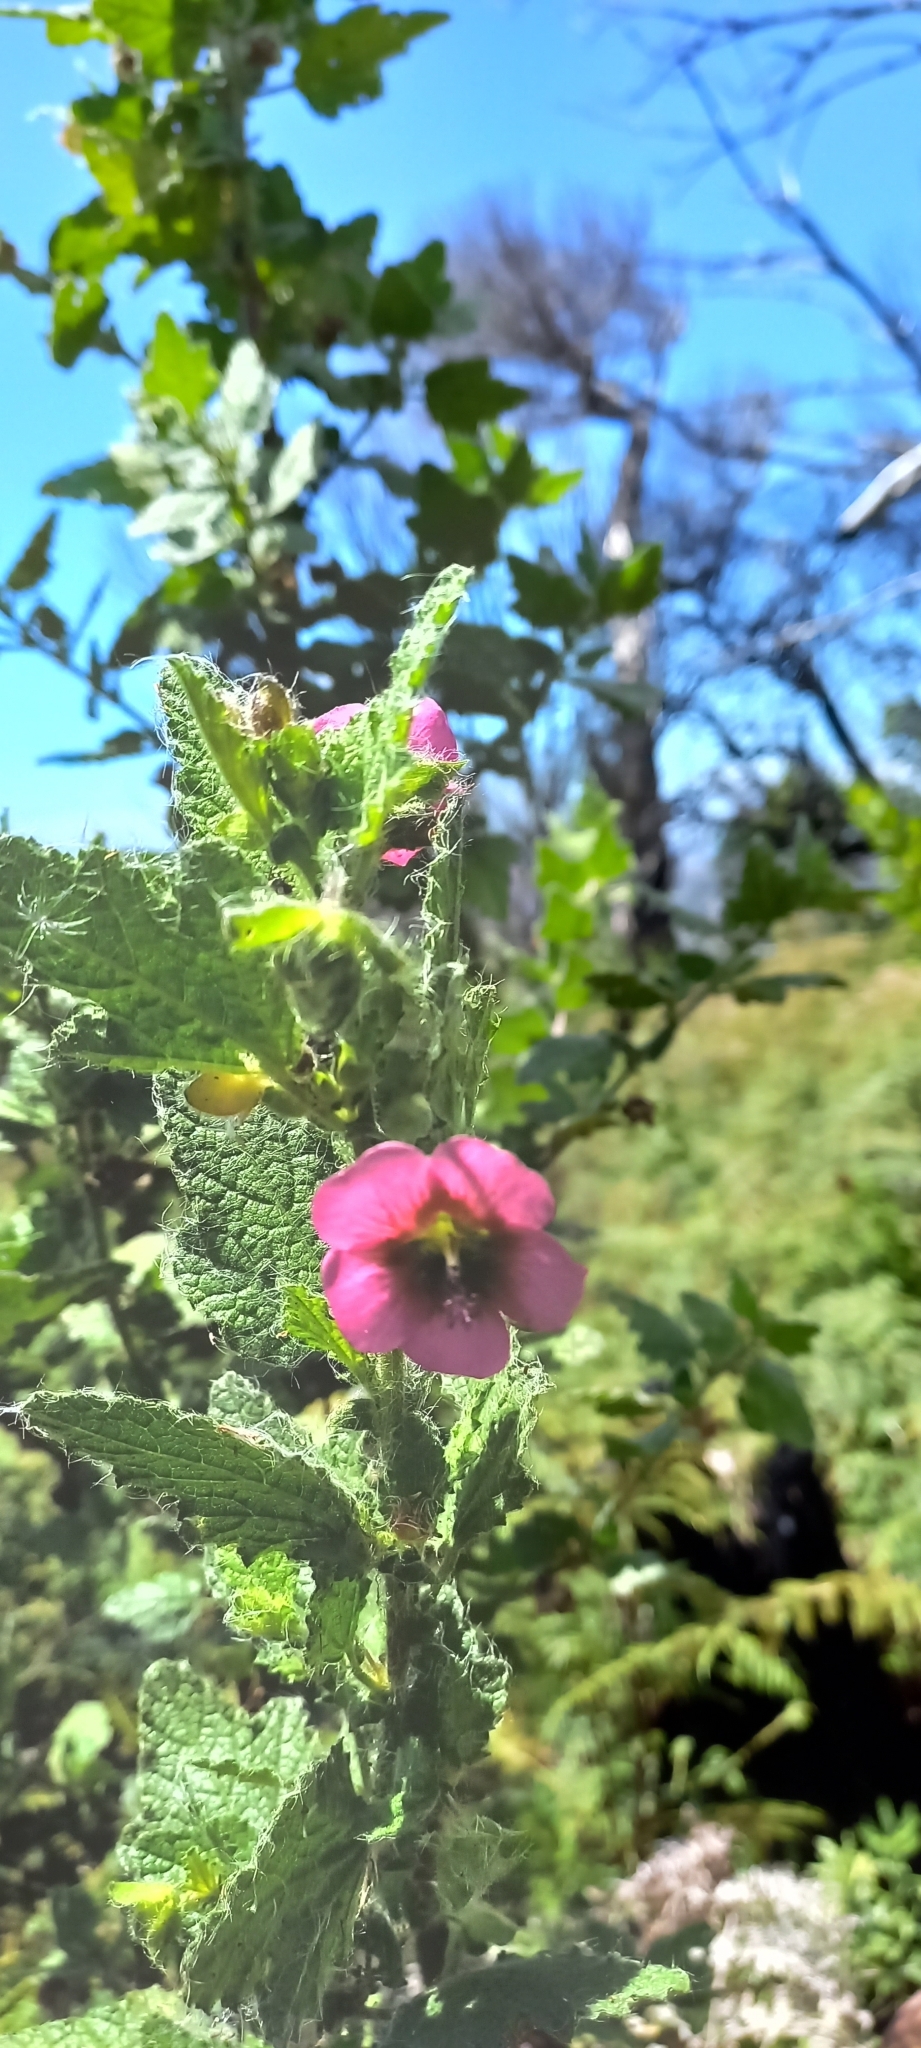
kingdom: Plantae
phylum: Tracheophyta
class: Magnoliopsida
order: Malvales
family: Malvaceae
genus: Anisodontea
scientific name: Anisodontea scabrosa
